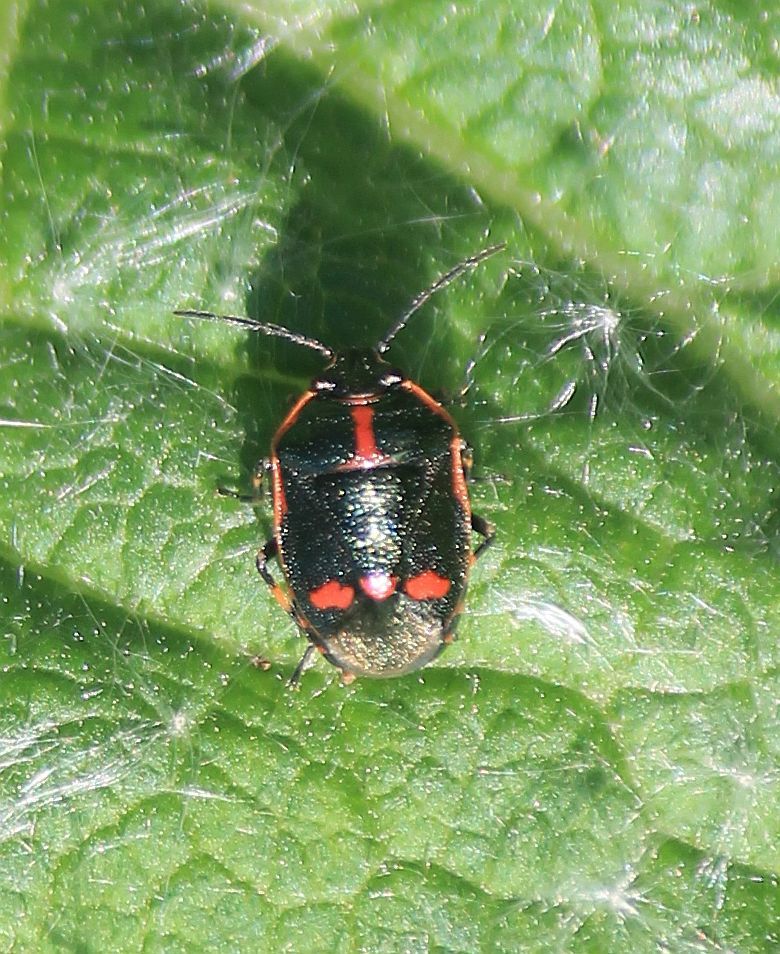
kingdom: Animalia
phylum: Arthropoda
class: Insecta
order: Hemiptera
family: Pentatomidae
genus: Eurydema
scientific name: Eurydema oleracea
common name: Cabbage bug
